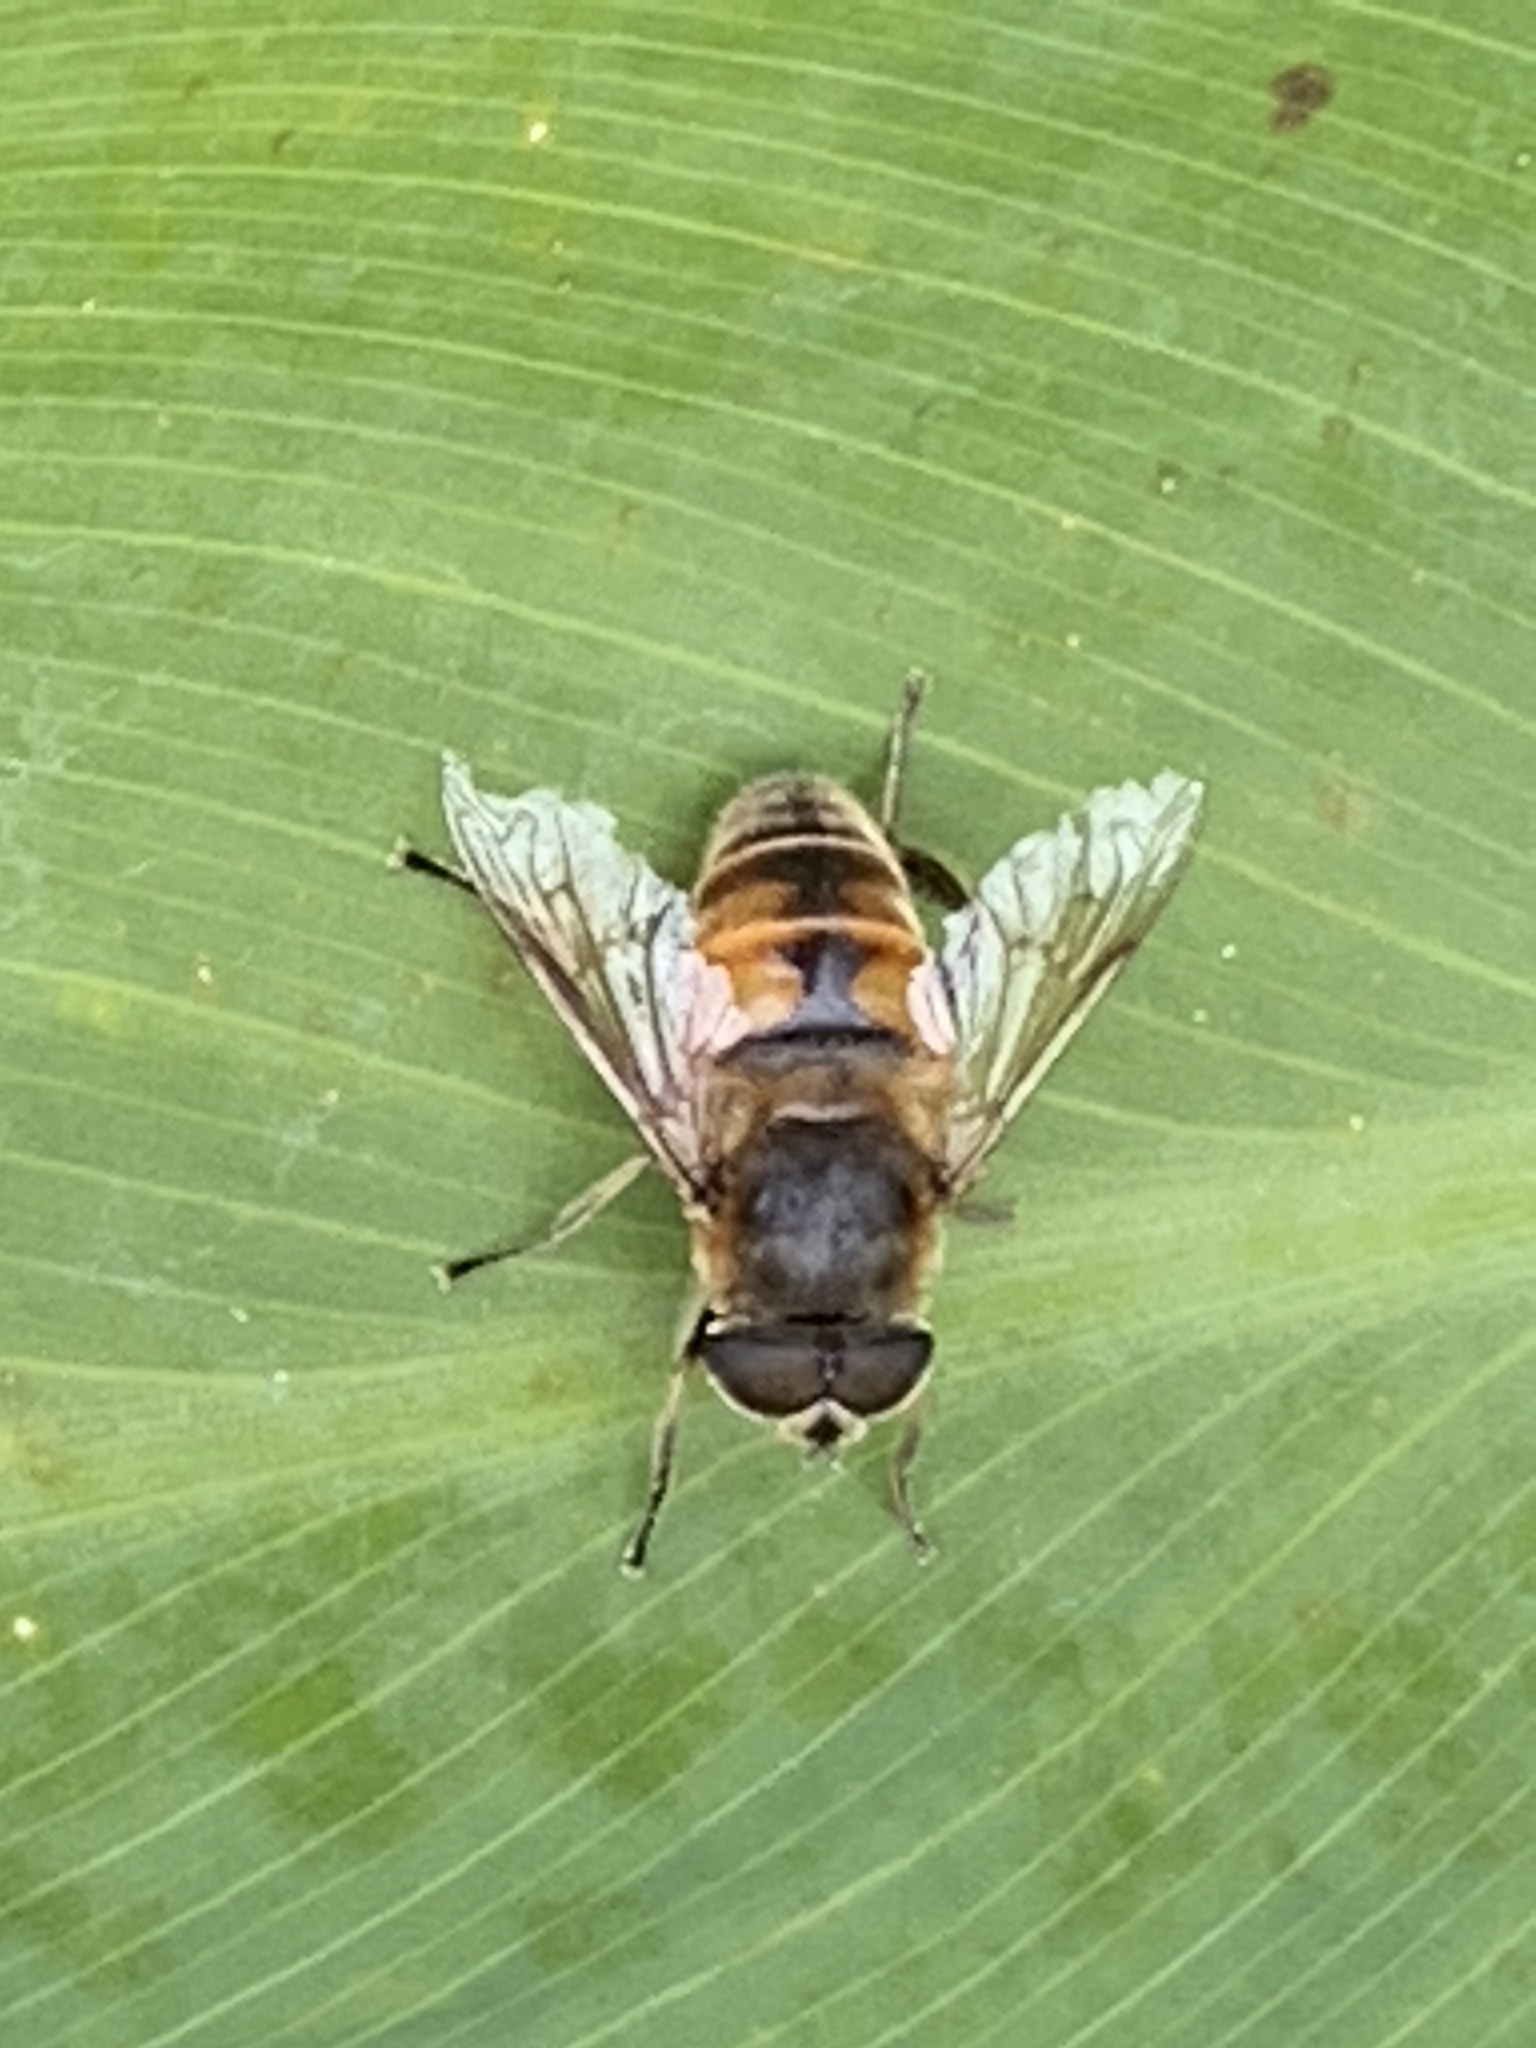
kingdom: Animalia
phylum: Arthropoda
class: Insecta
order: Diptera
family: Syrphidae
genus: Eristalis
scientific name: Eristalis tenax
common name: Drone fly
